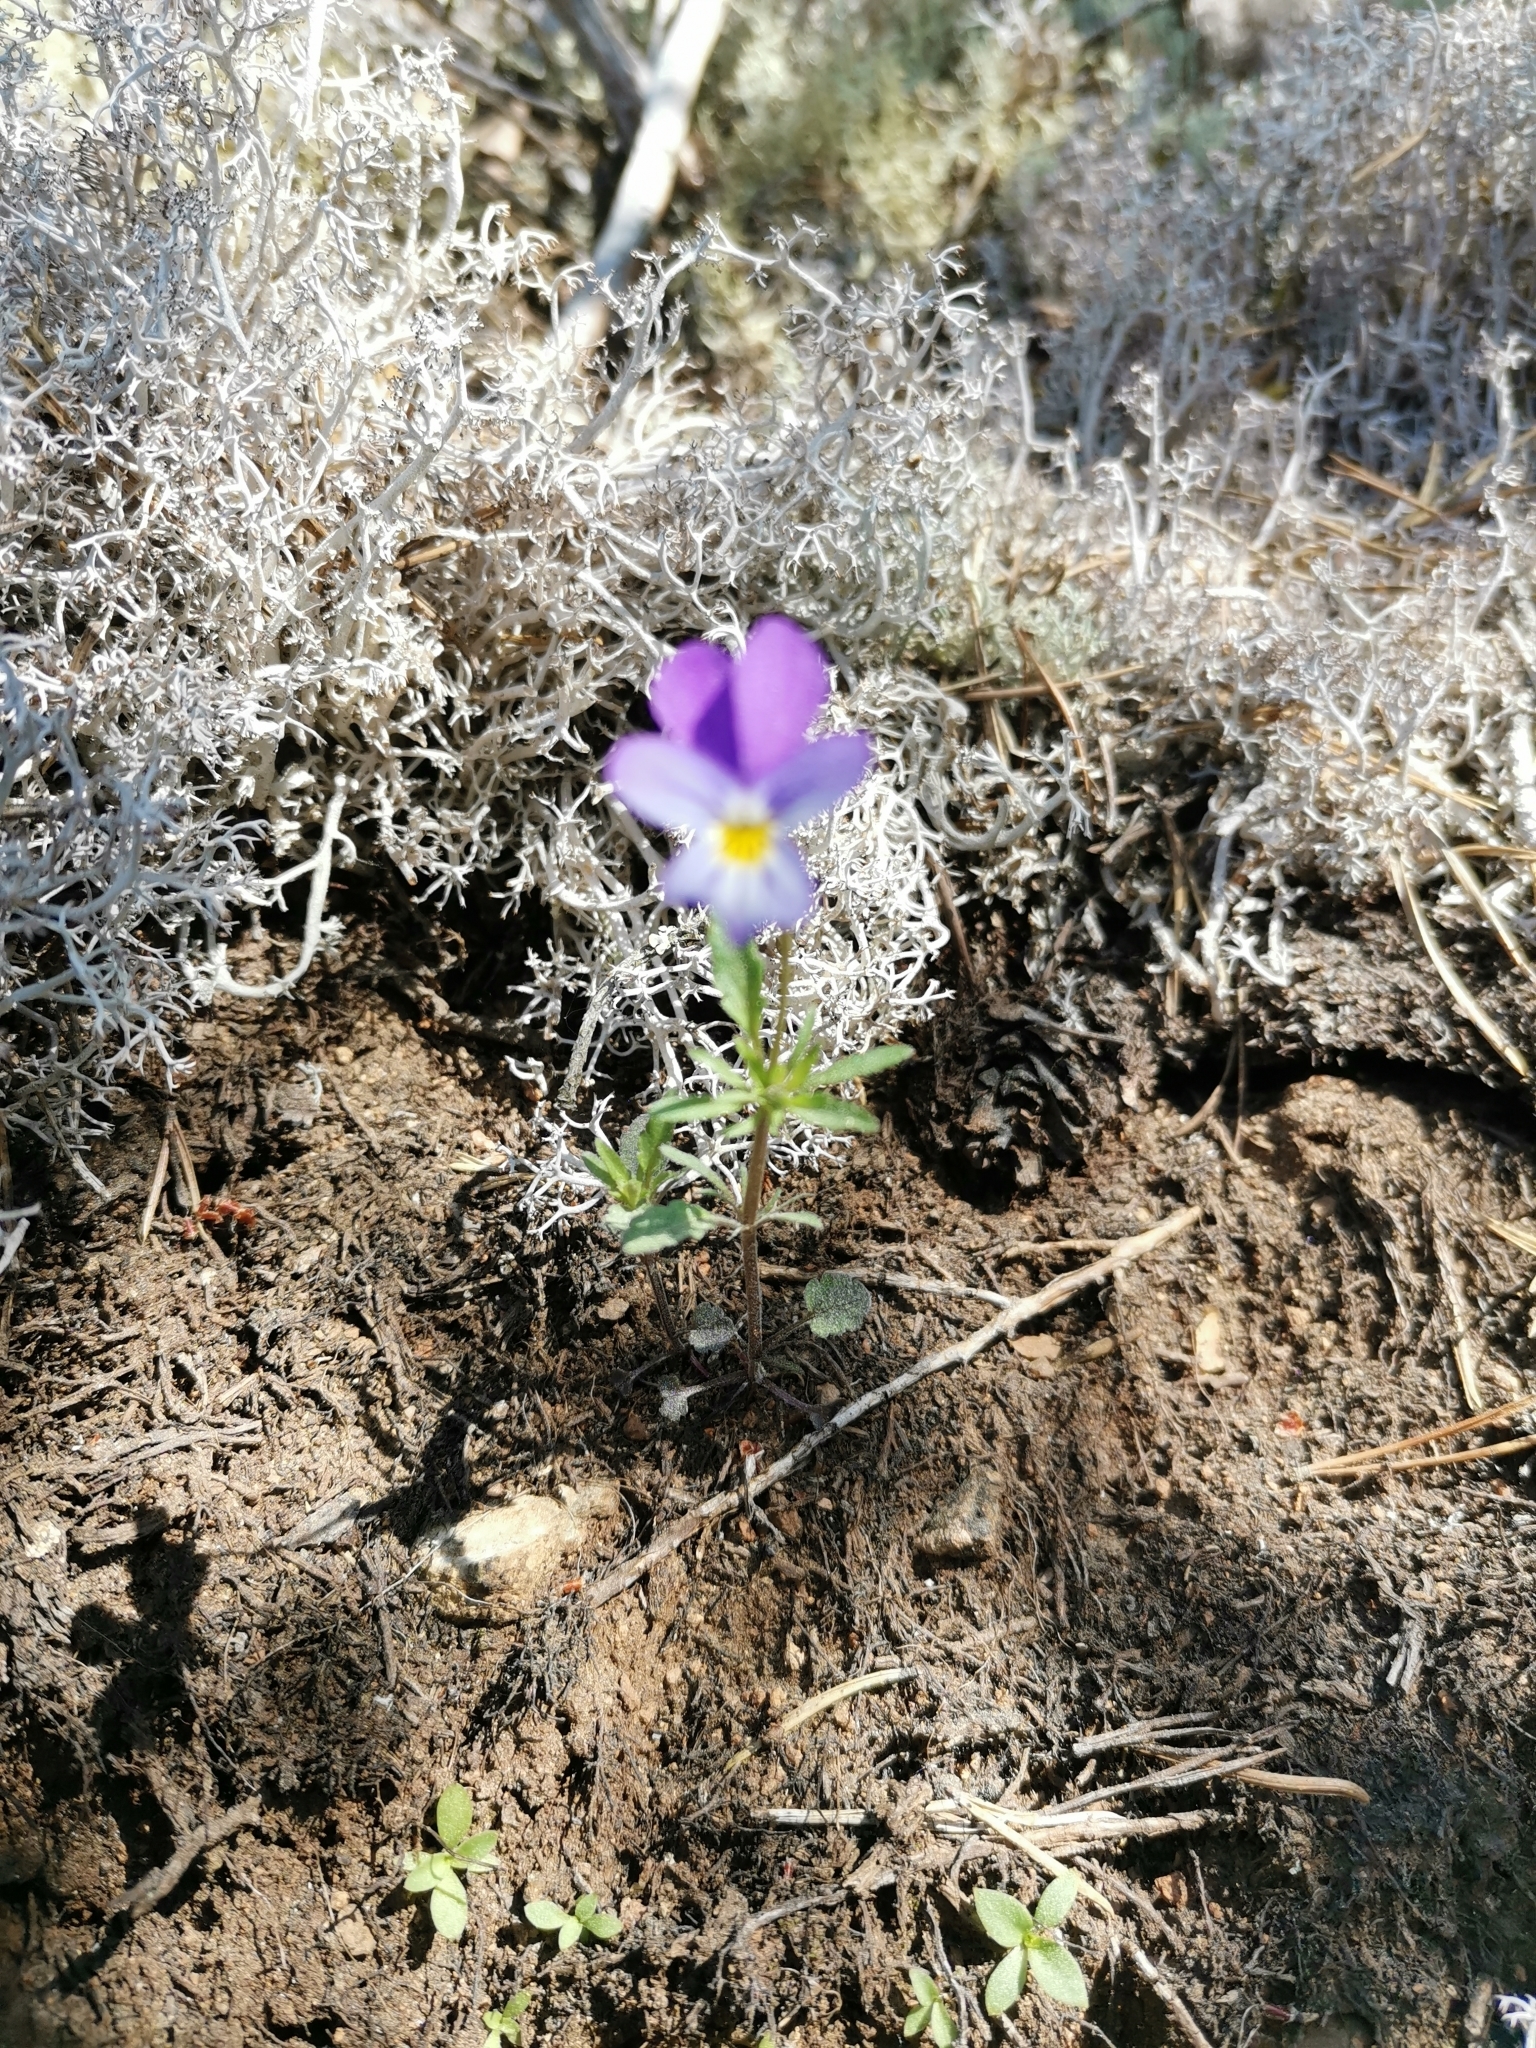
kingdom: Plantae
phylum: Tracheophyta
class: Magnoliopsida
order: Malpighiales
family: Violaceae
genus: Viola
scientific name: Viola tricolor
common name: Pansy
